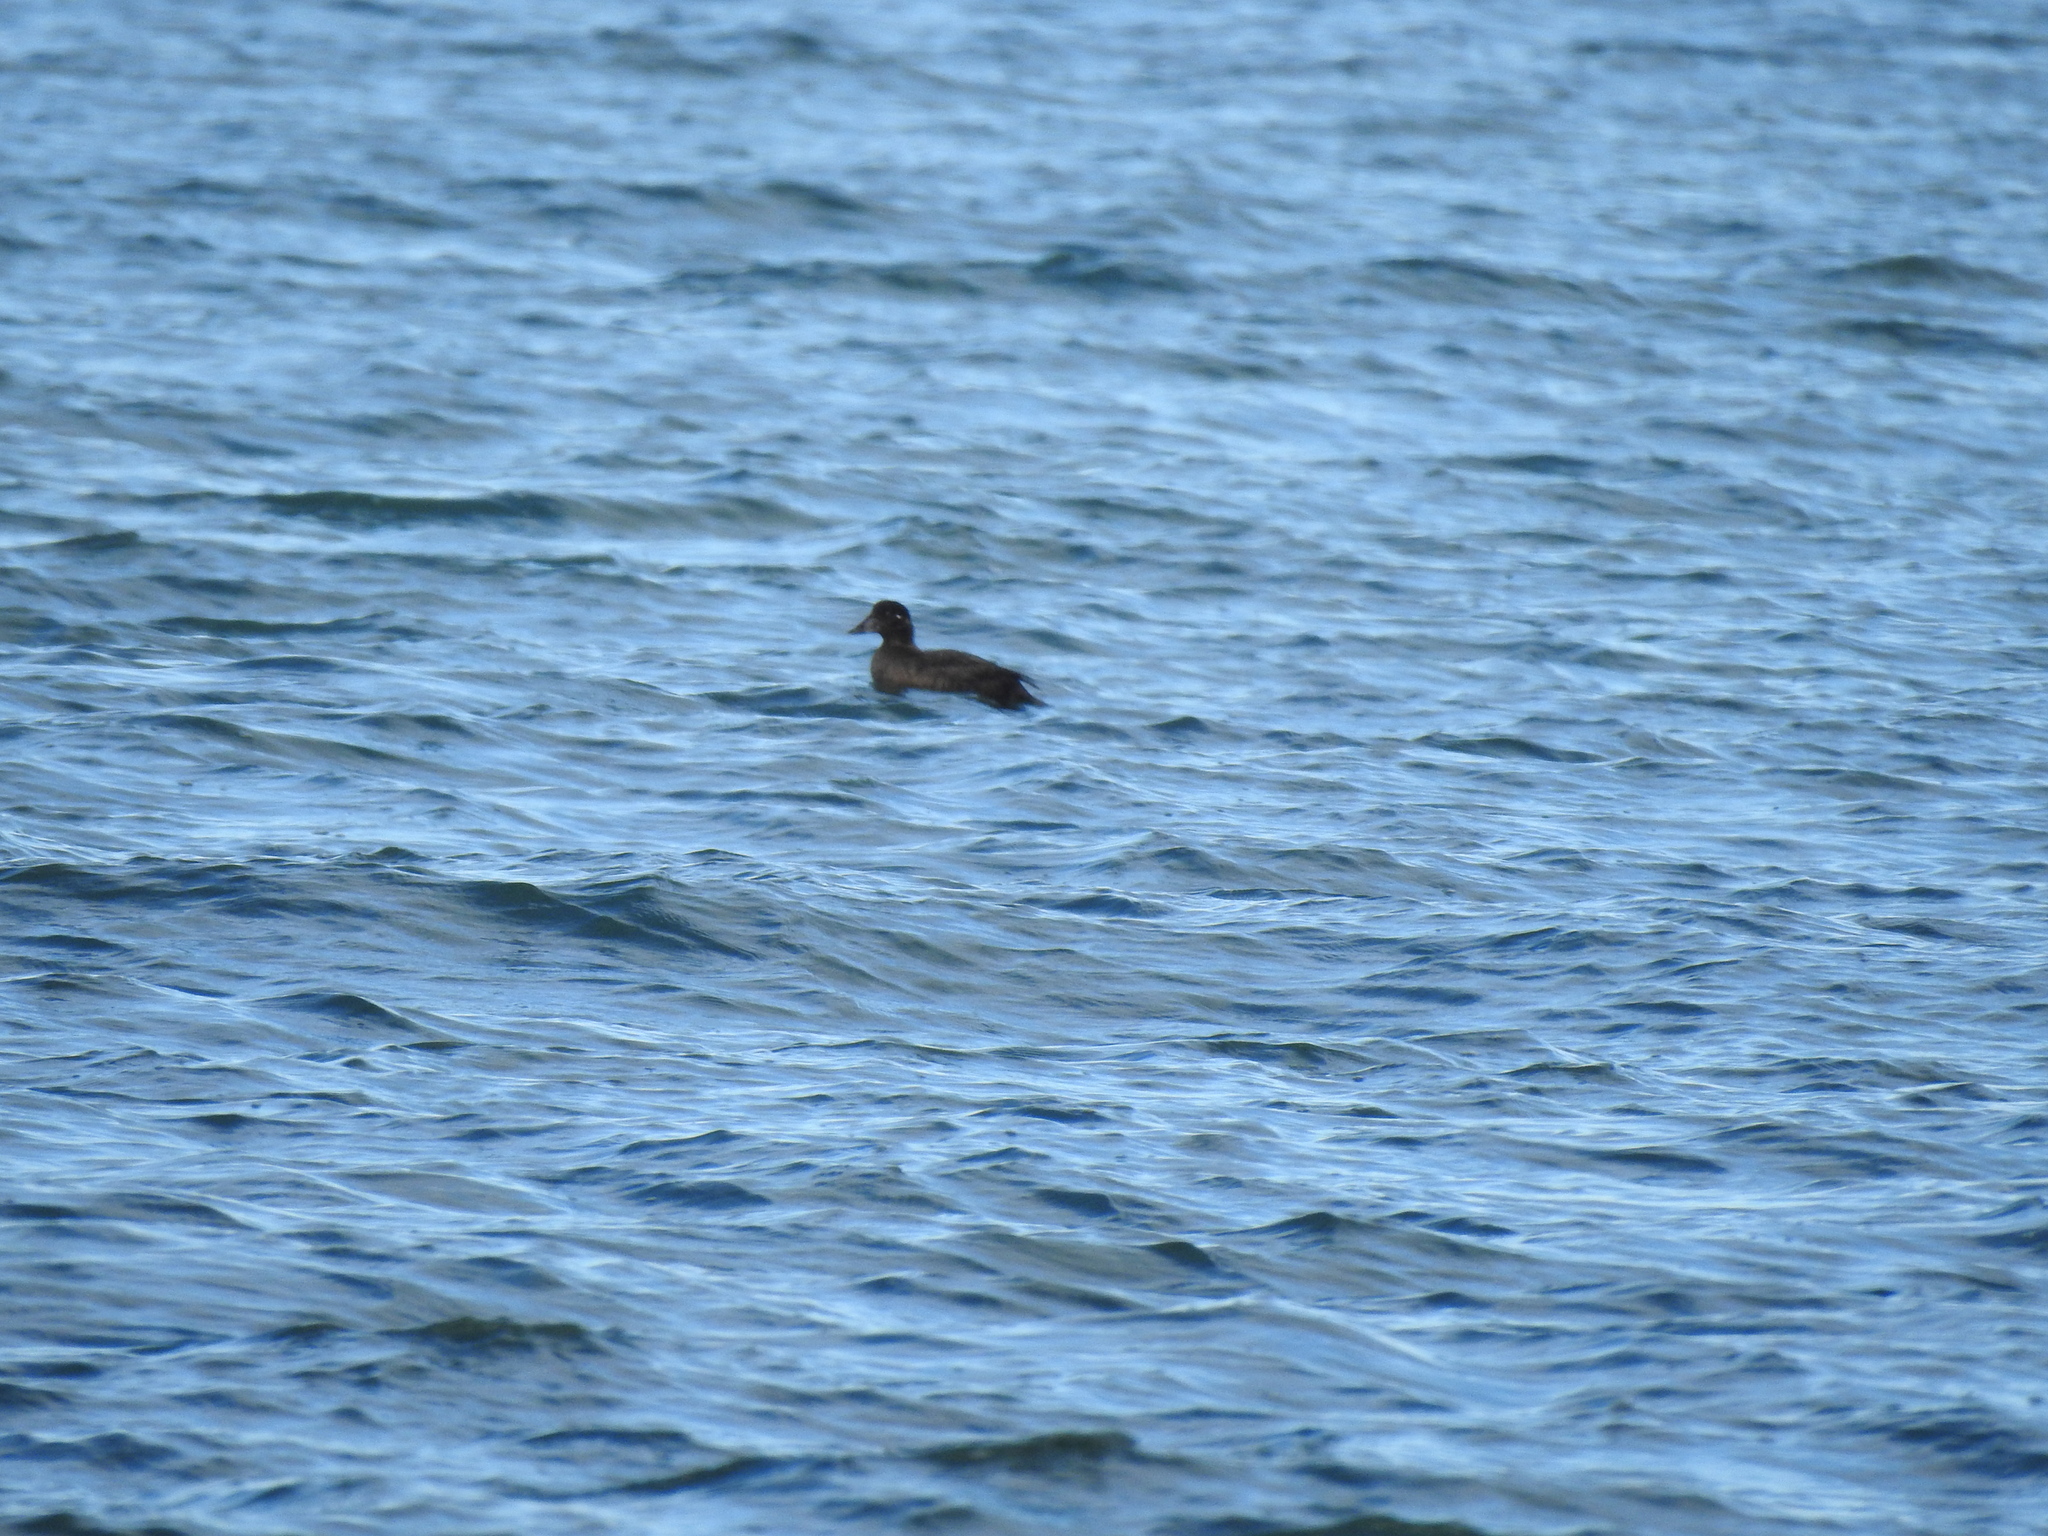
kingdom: Animalia
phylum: Chordata
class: Aves
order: Anseriformes
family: Anatidae
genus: Melanitta
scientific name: Melanitta perspicillata
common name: Surf scoter
